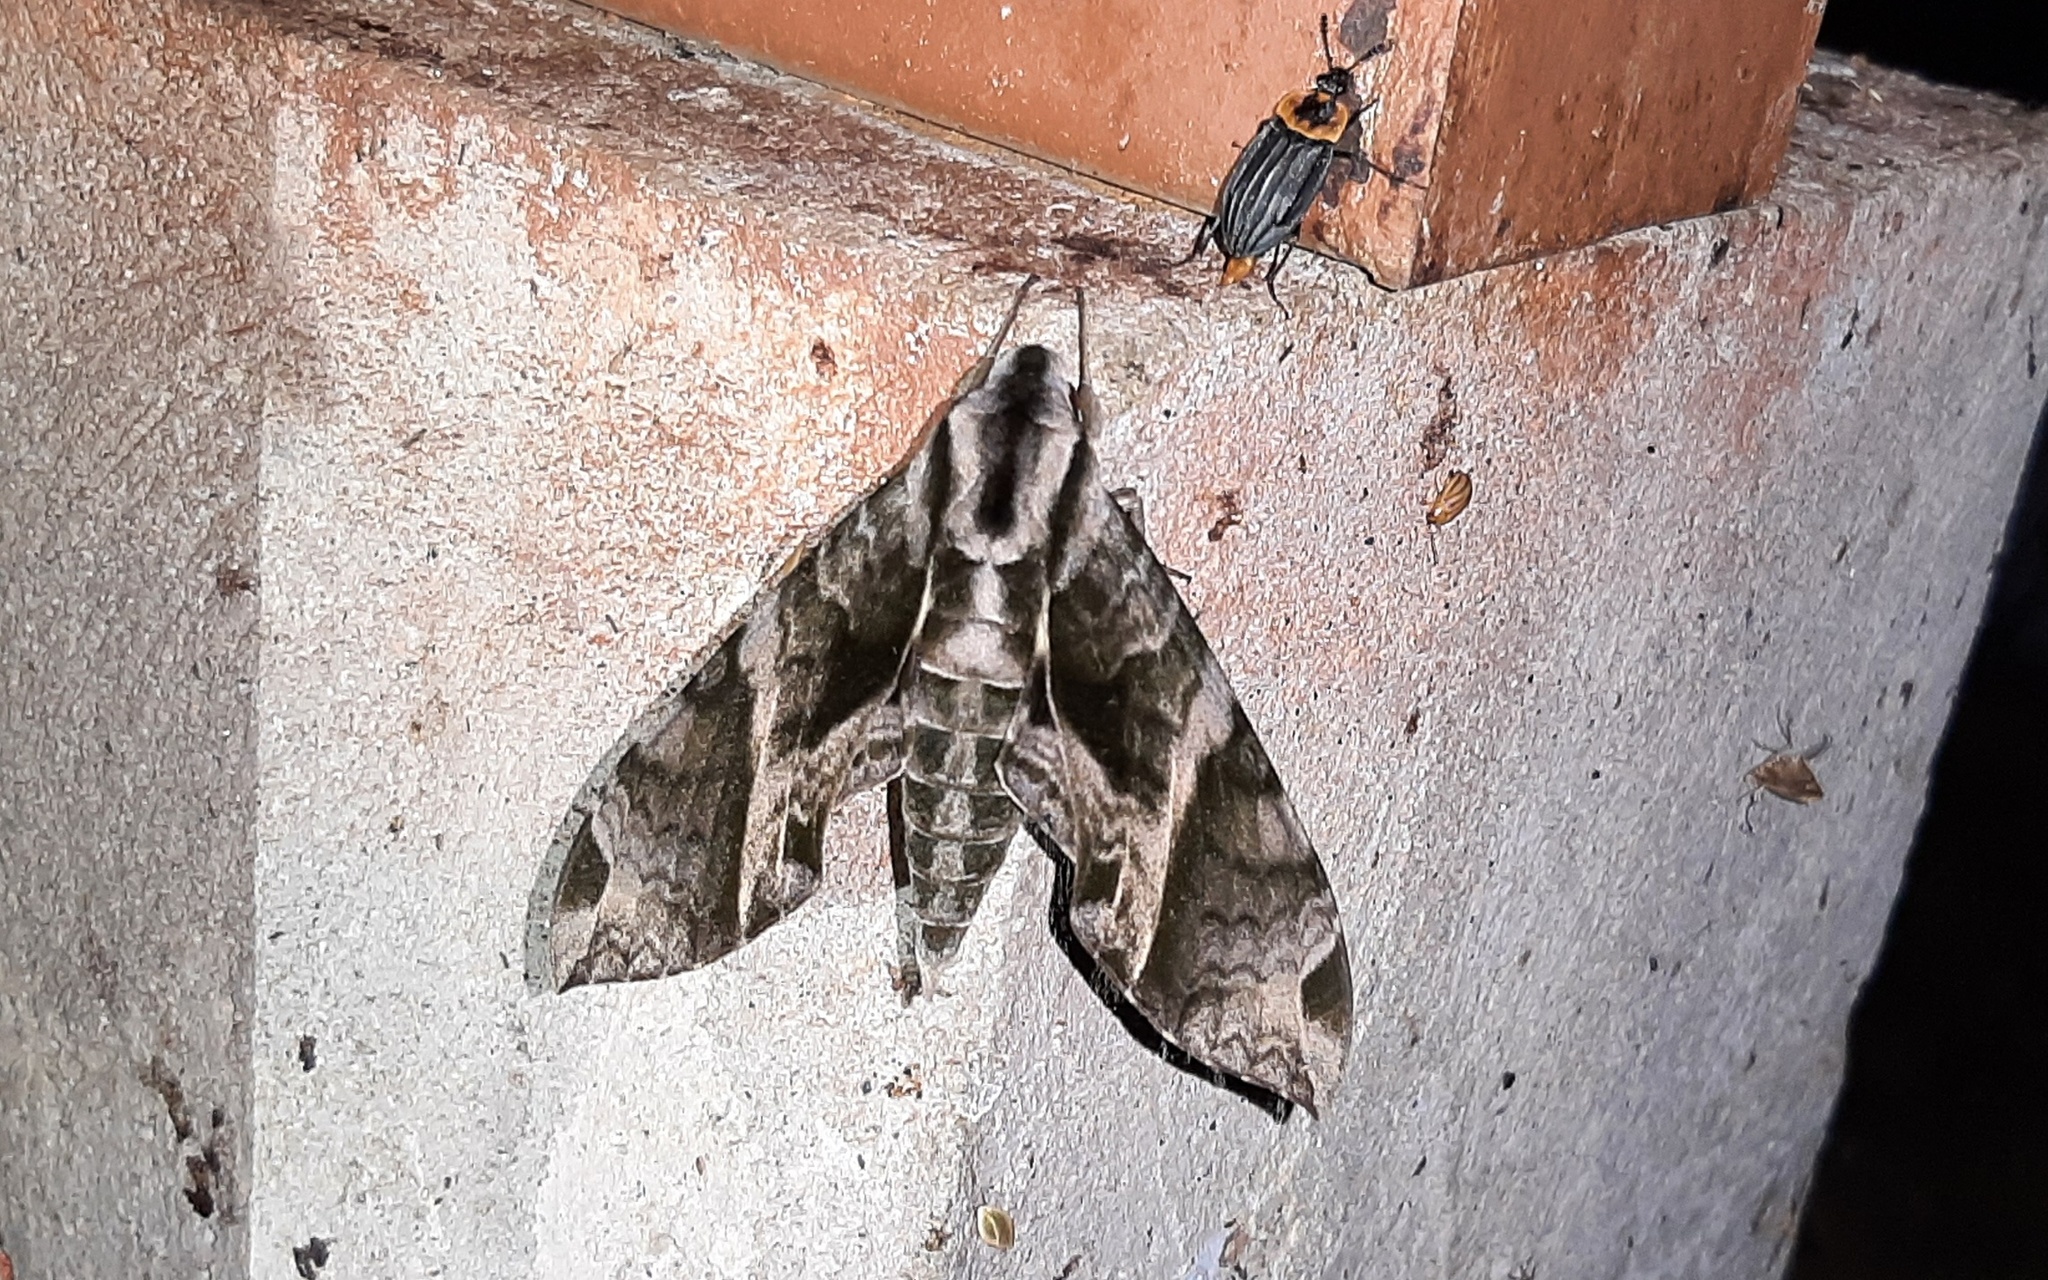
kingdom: Animalia
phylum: Arthropoda
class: Insecta
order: Lepidoptera
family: Sphingidae
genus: Eumorpha
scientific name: Eumorpha anchemolus
